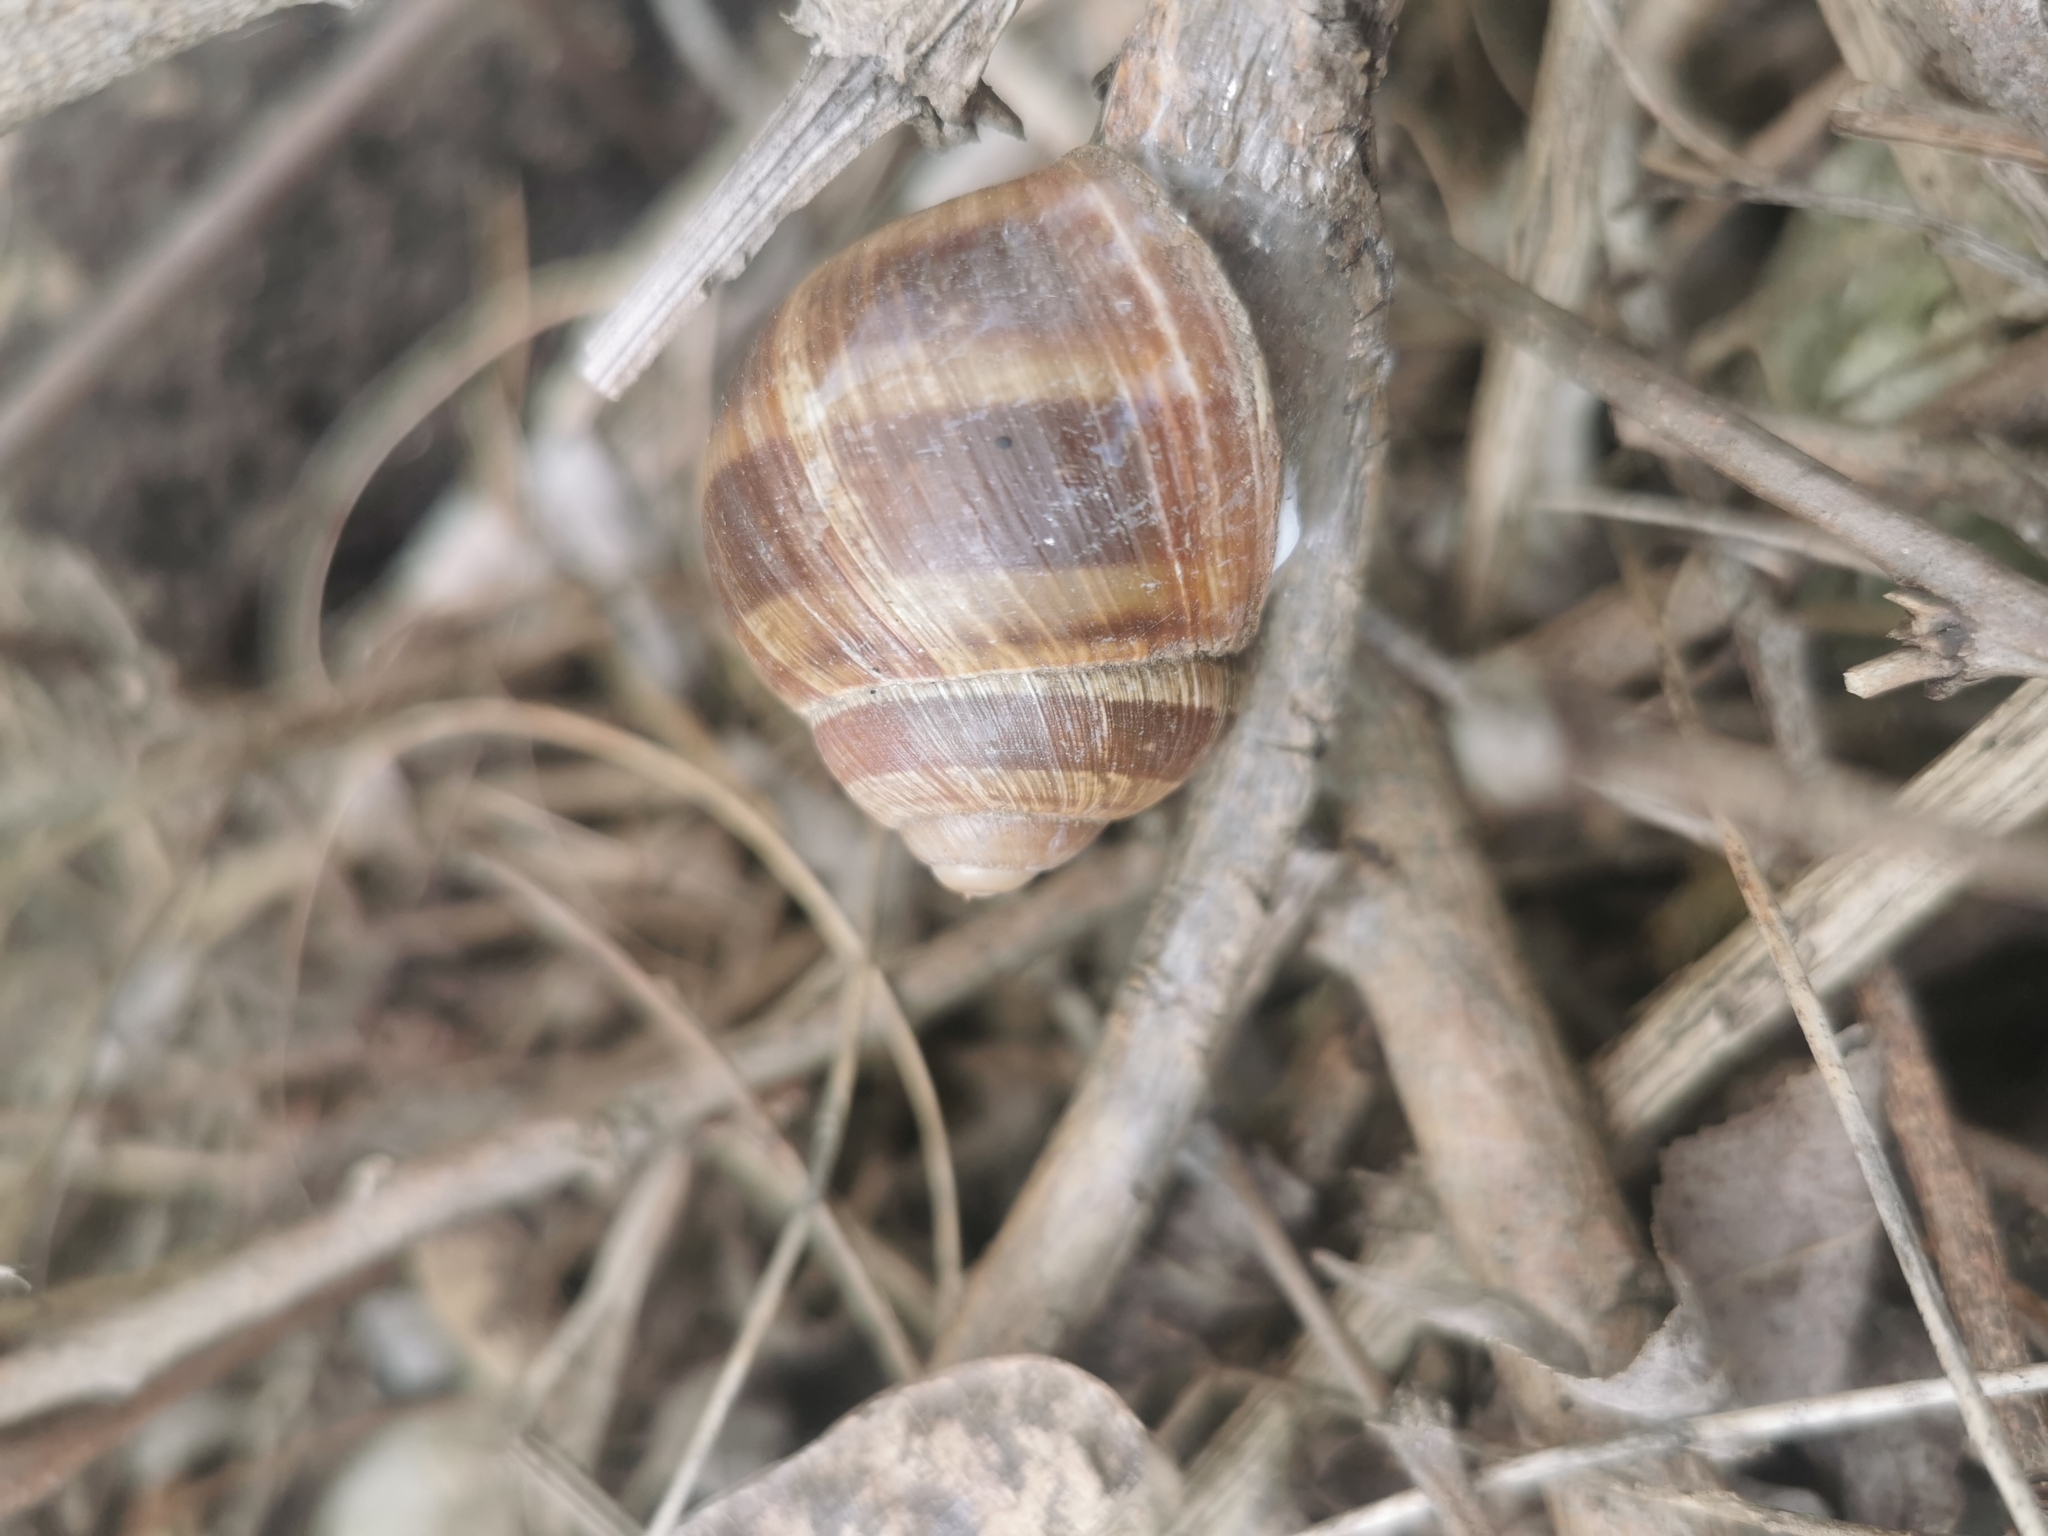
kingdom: Animalia
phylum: Mollusca
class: Gastropoda
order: Stylommatophora
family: Helicidae
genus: Helix
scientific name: Helix pomatia
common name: Roman snail
